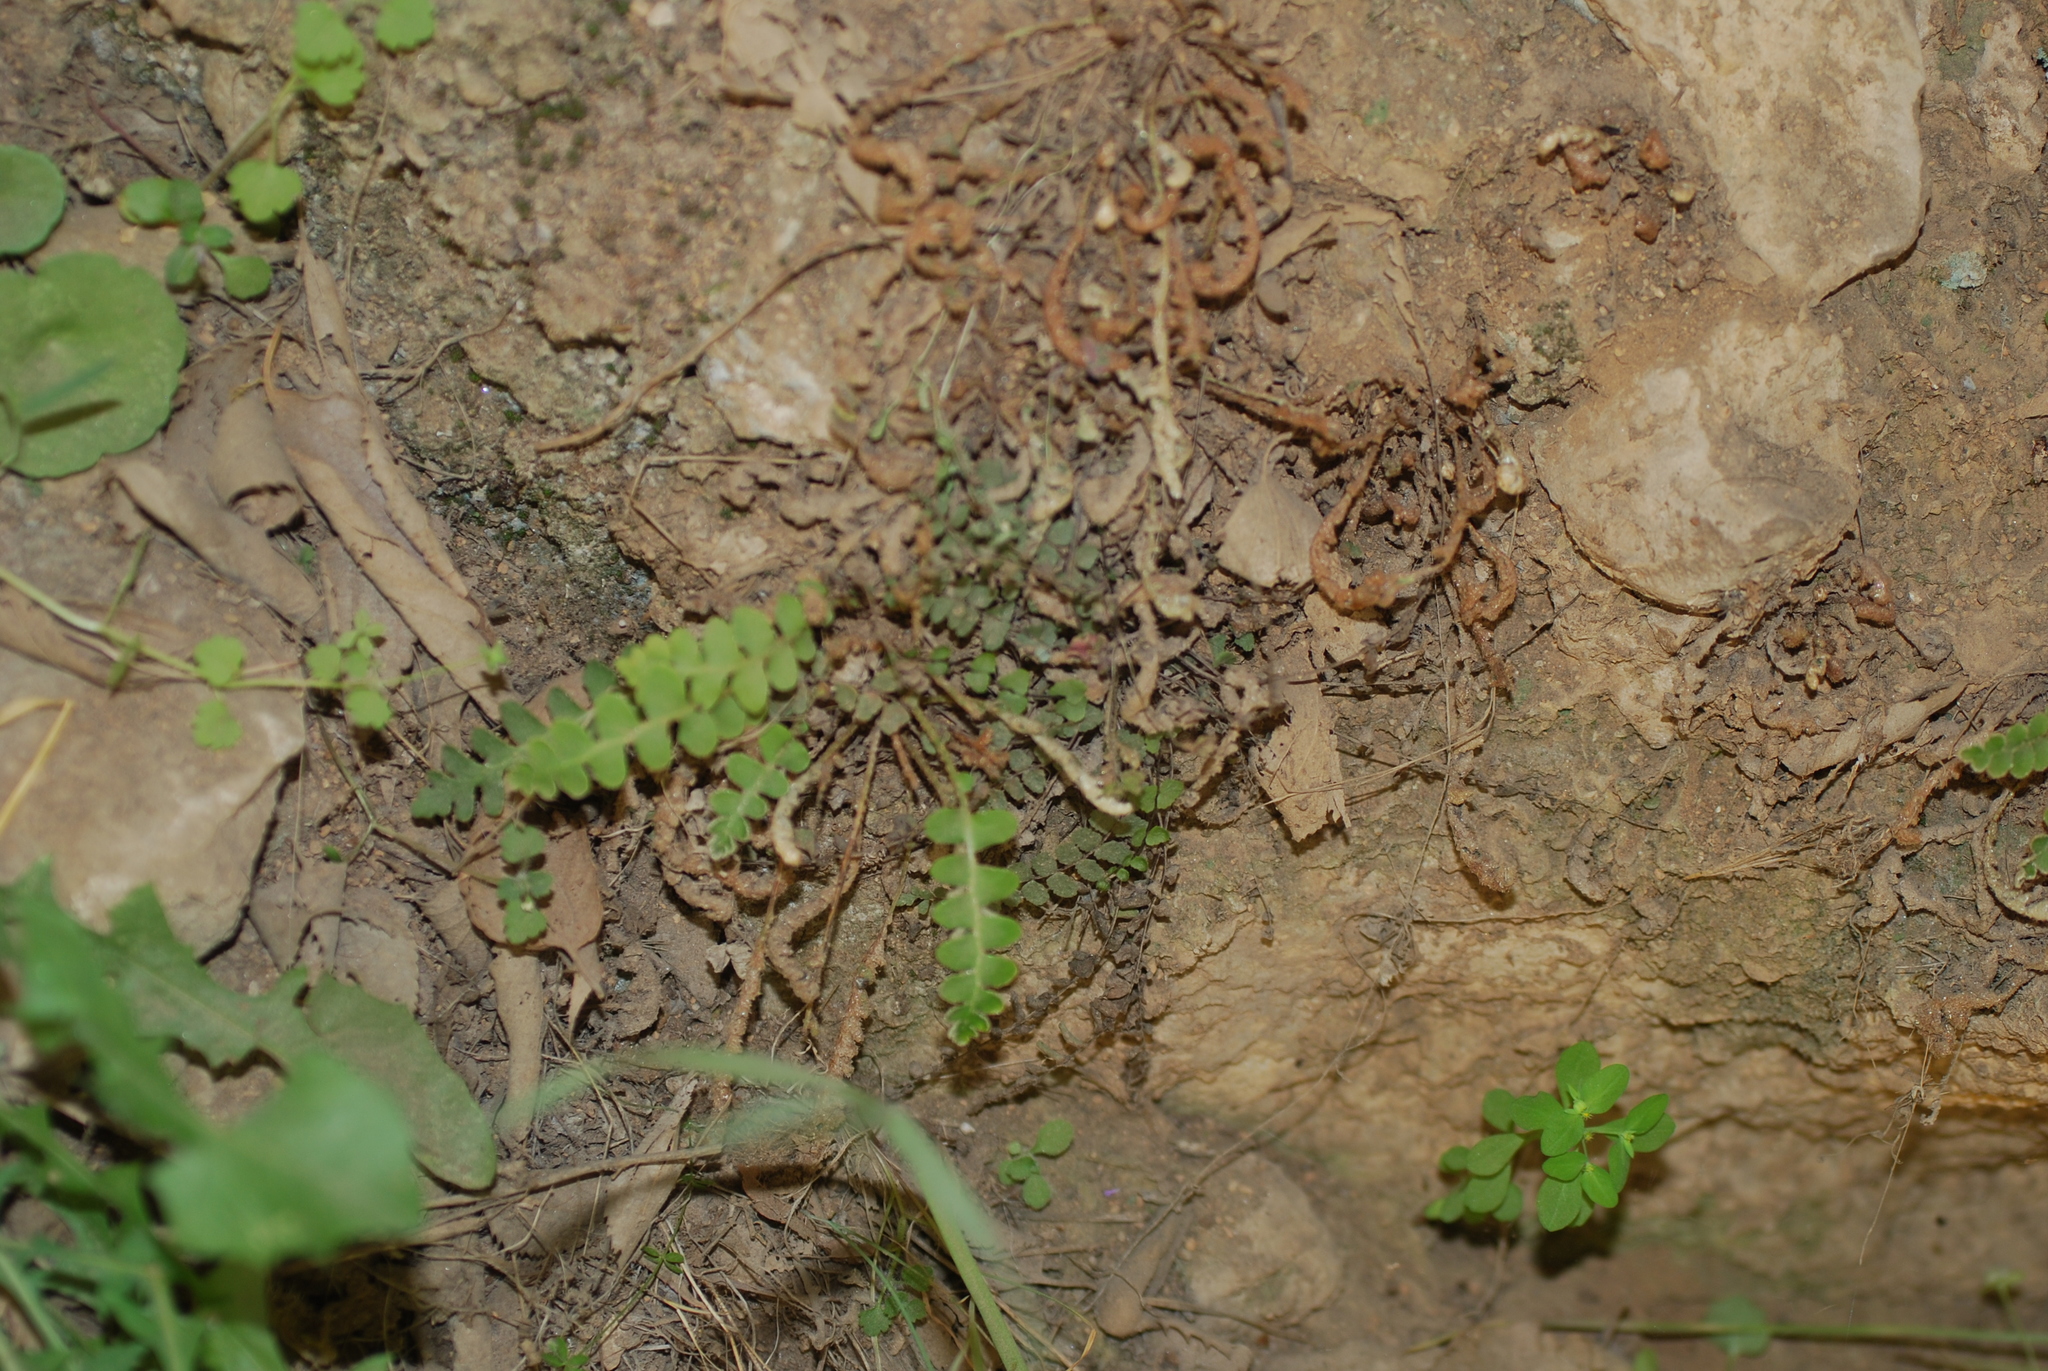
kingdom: Plantae
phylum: Tracheophyta
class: Polypodiopsida
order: Polypodiales
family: Aspleniaceae
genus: Asplenium
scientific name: Asplenium ceterach
